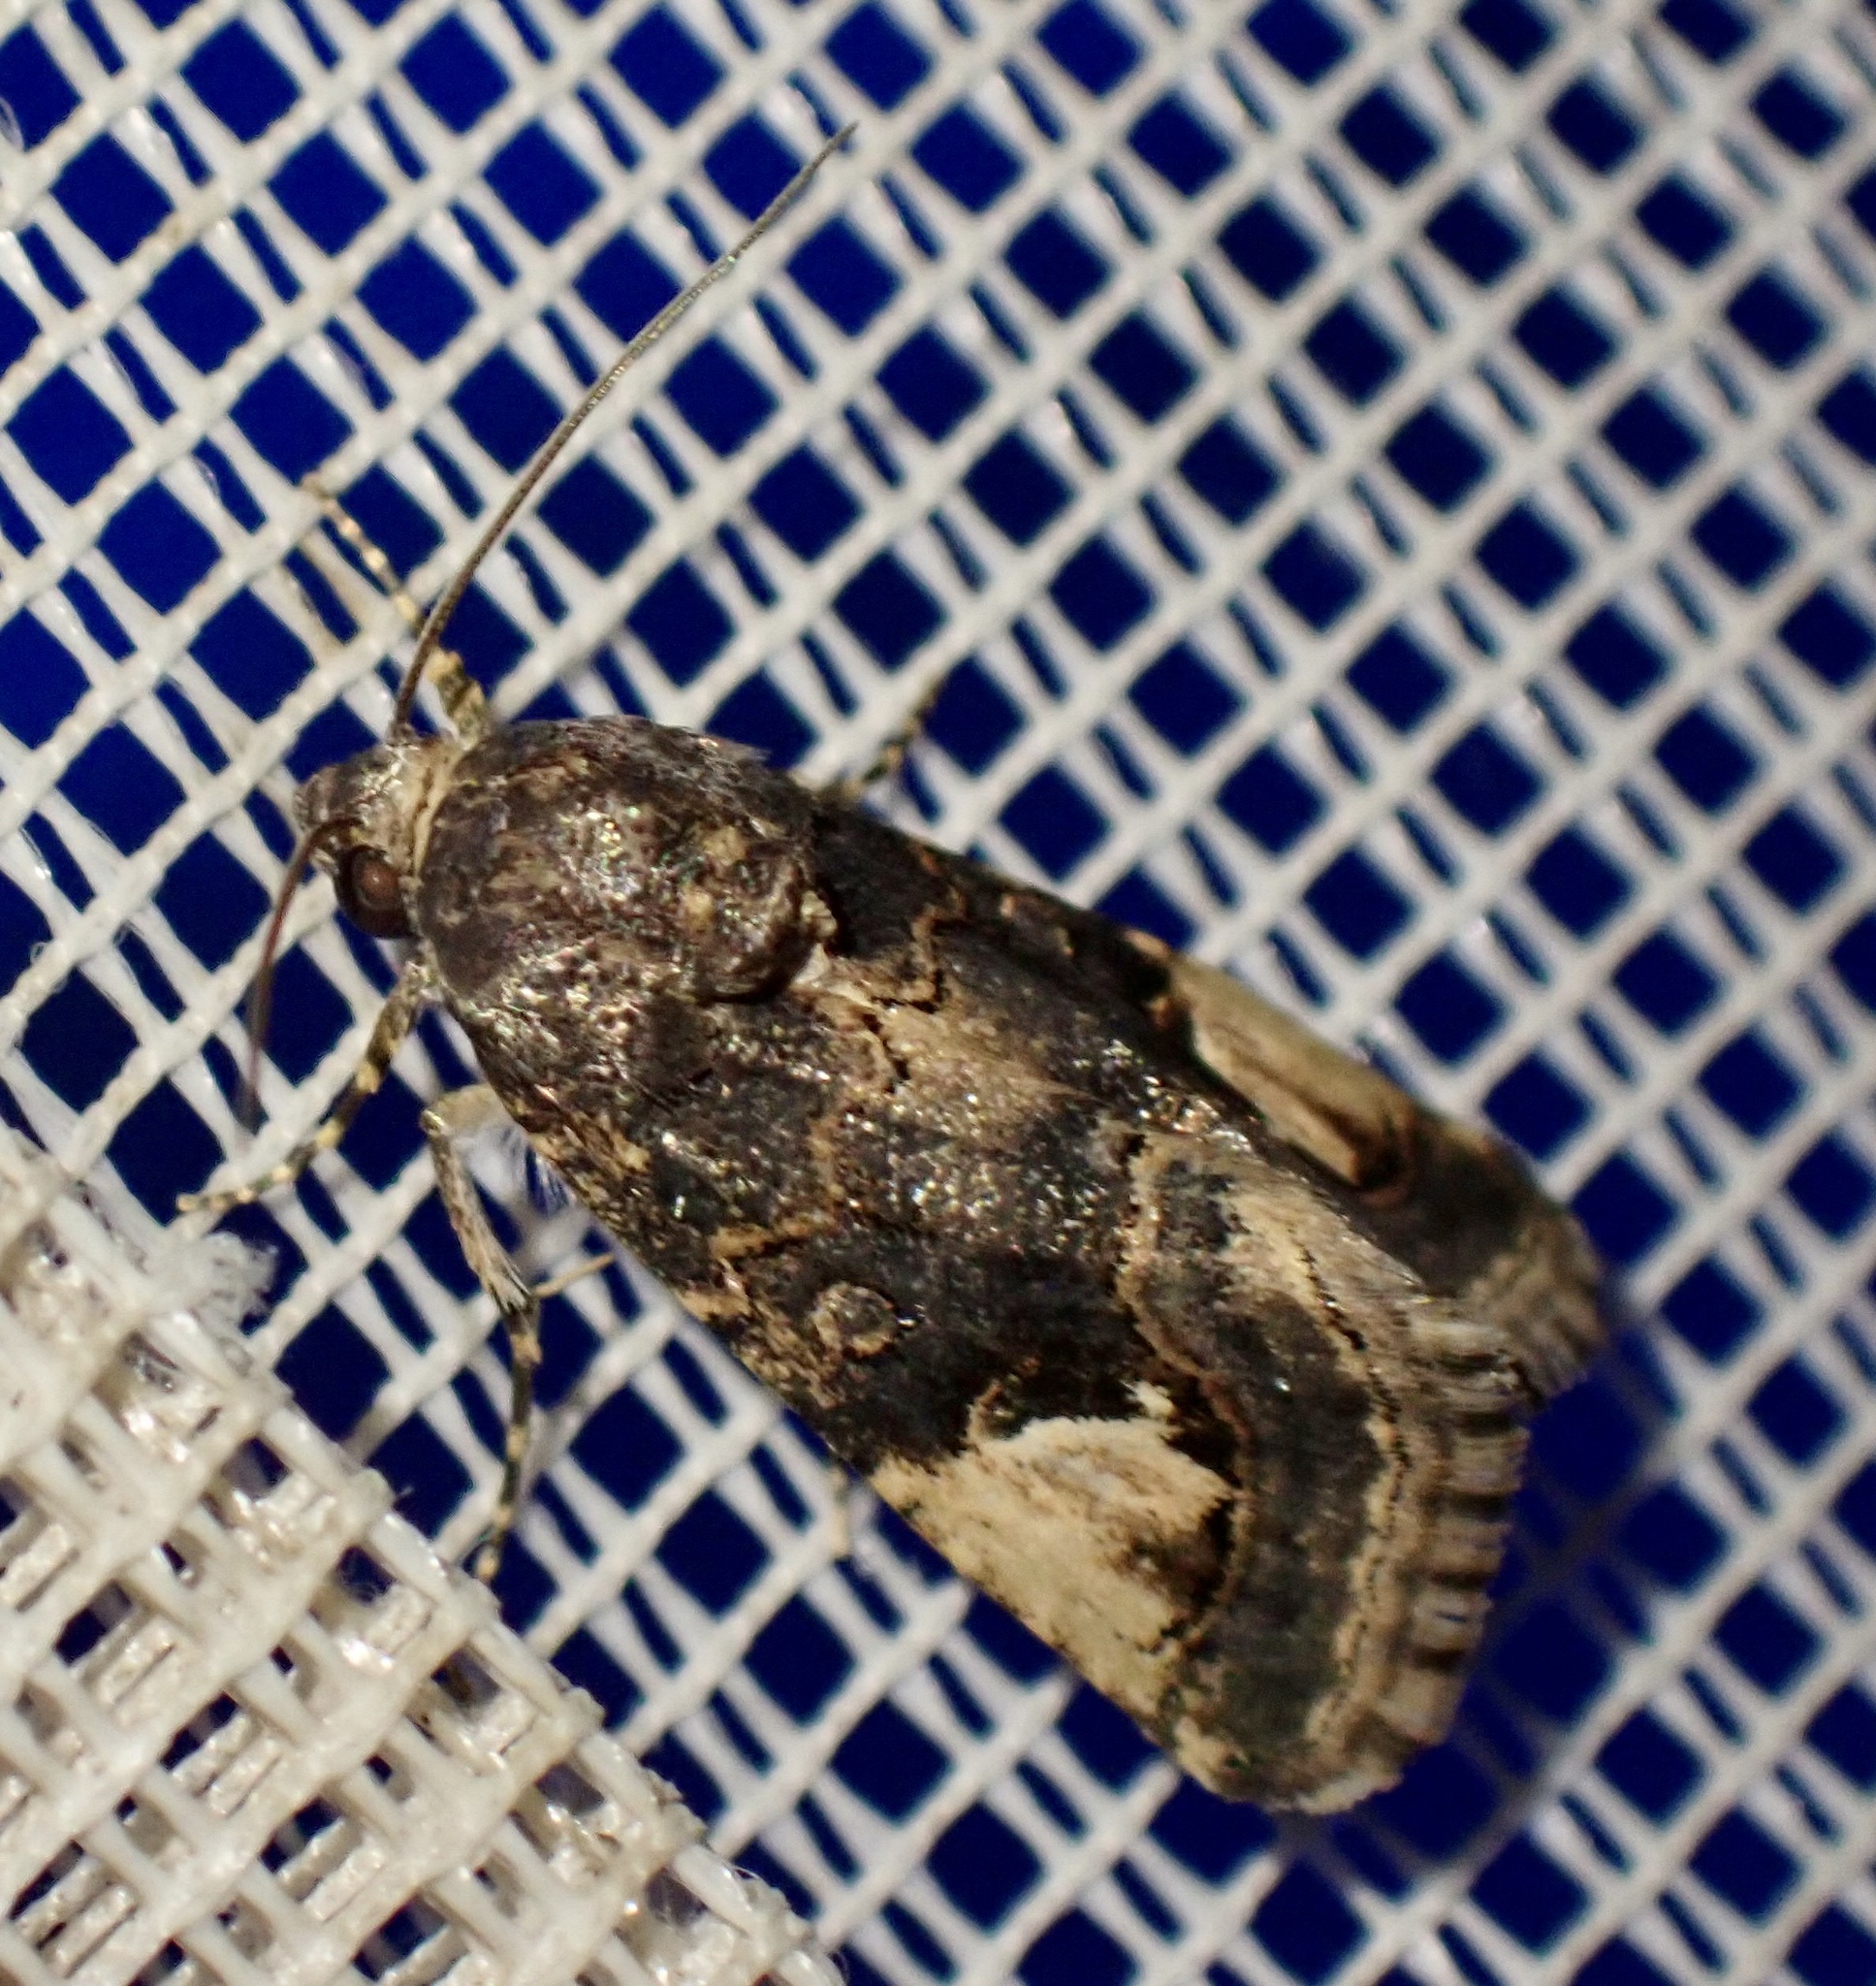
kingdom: Animalia
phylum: Arthropoda
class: Insecta
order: Lepidoptera
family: Erebidae
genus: Epharmottomena
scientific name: Epharmottomena eremophila
